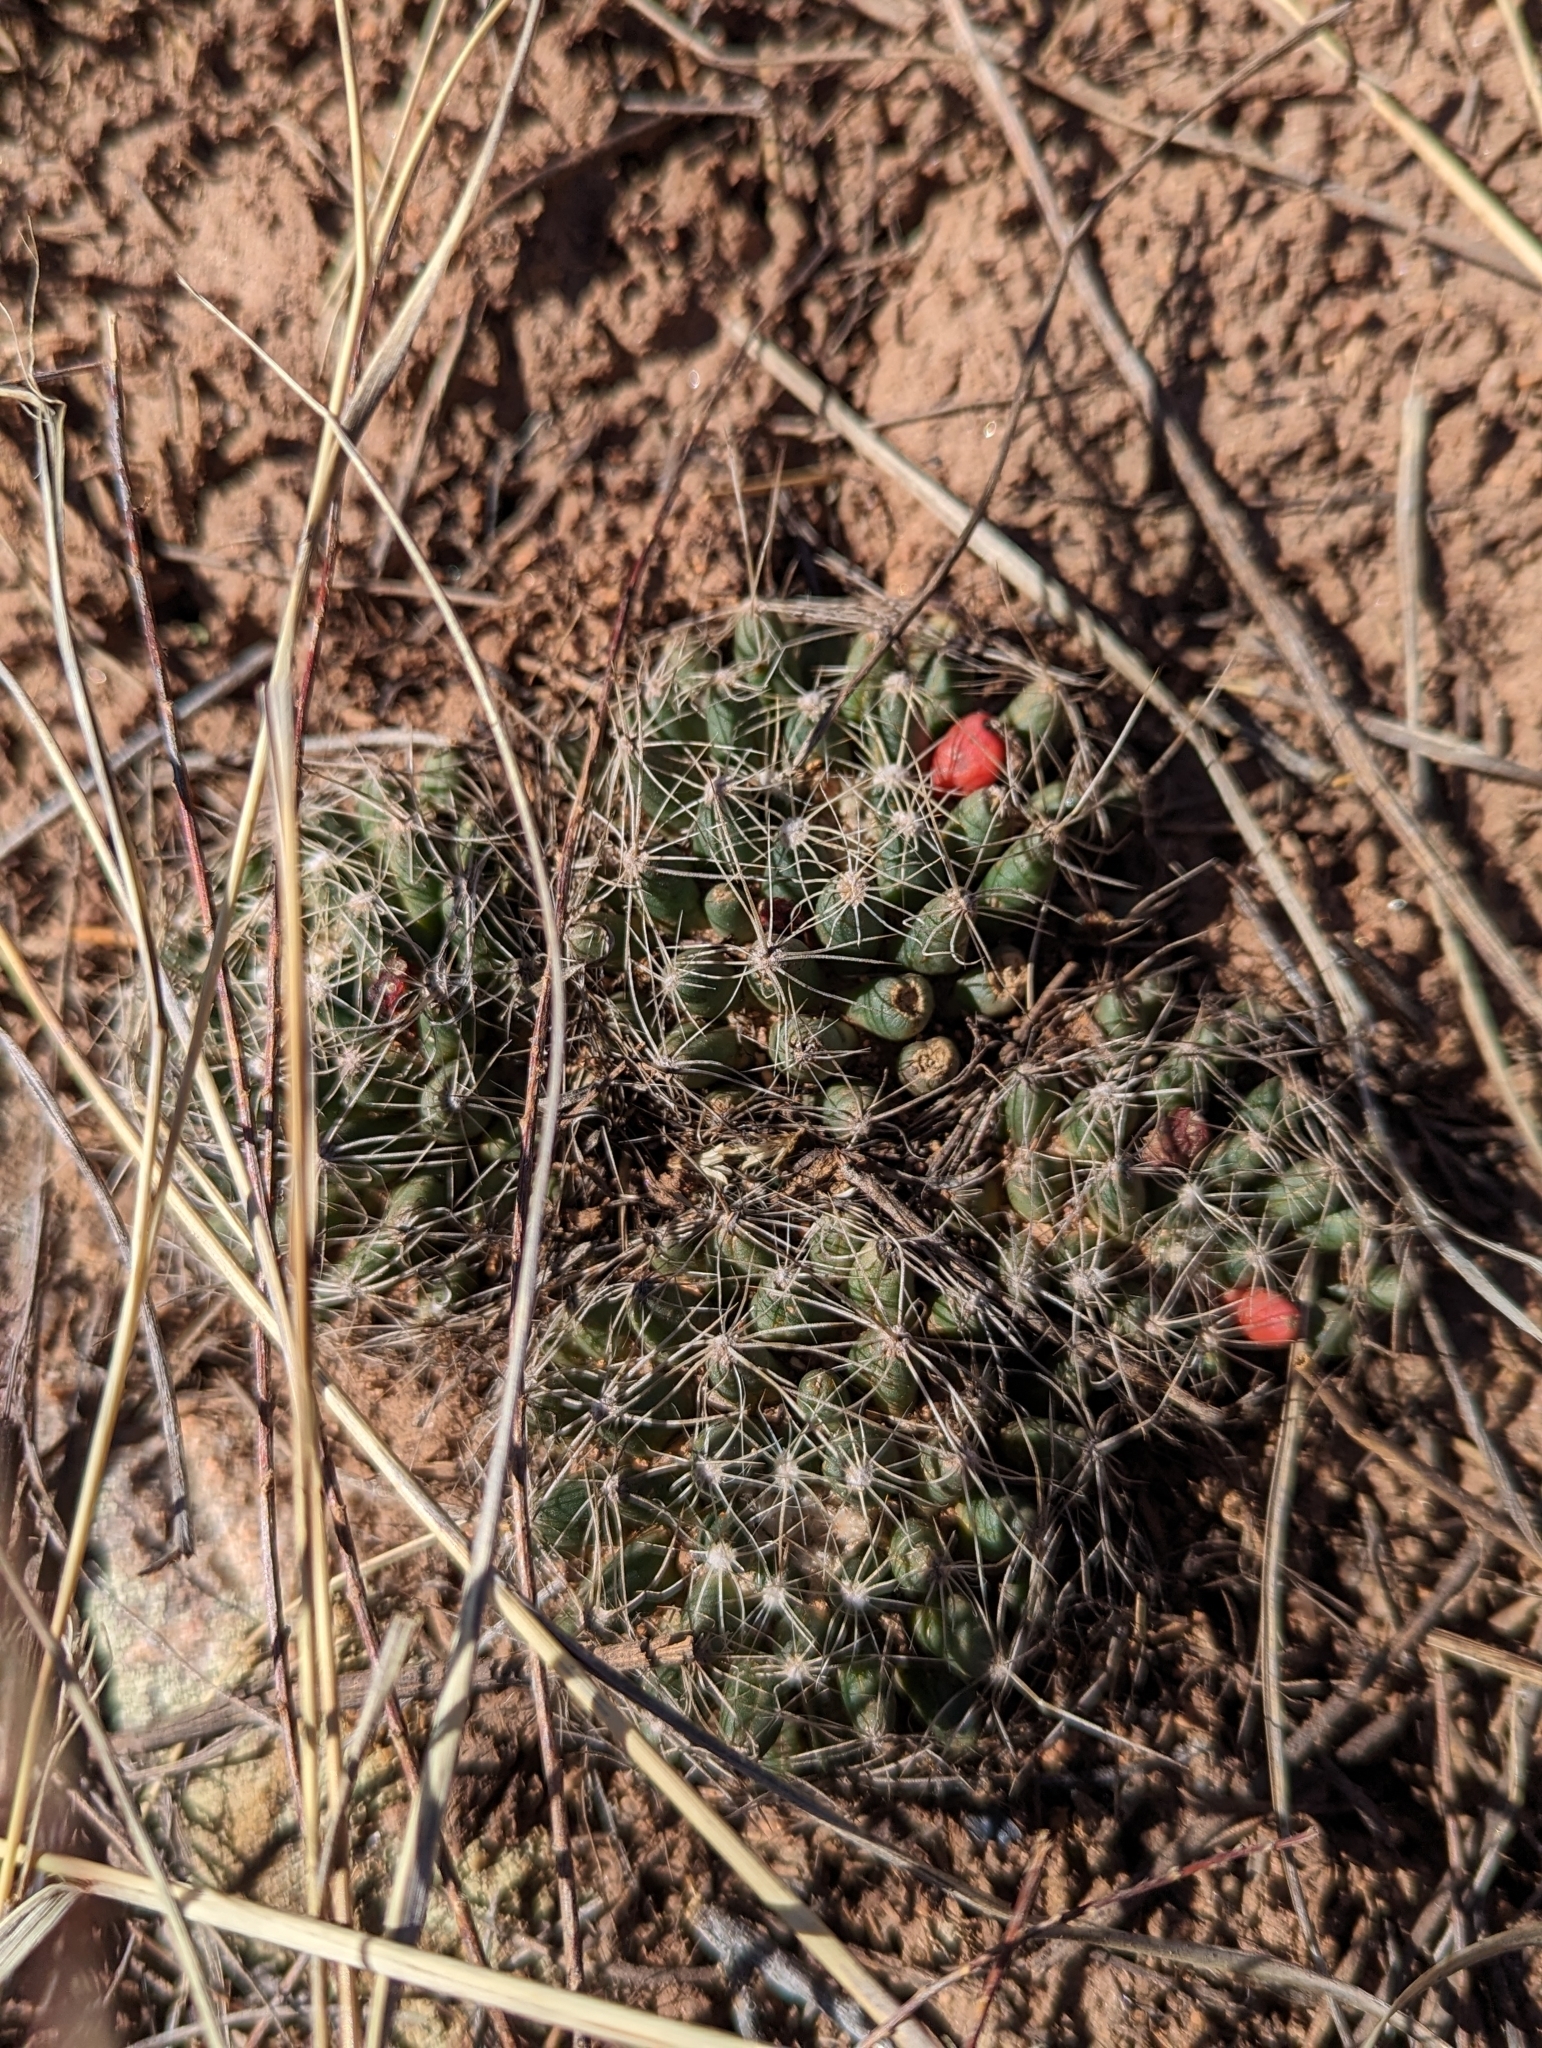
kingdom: Plantae
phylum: Tracheophyta
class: Magnoliopsida
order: Caryophyllales
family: Cactaceae
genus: Pelecyphora
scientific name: Pelecyphora missouriensis
